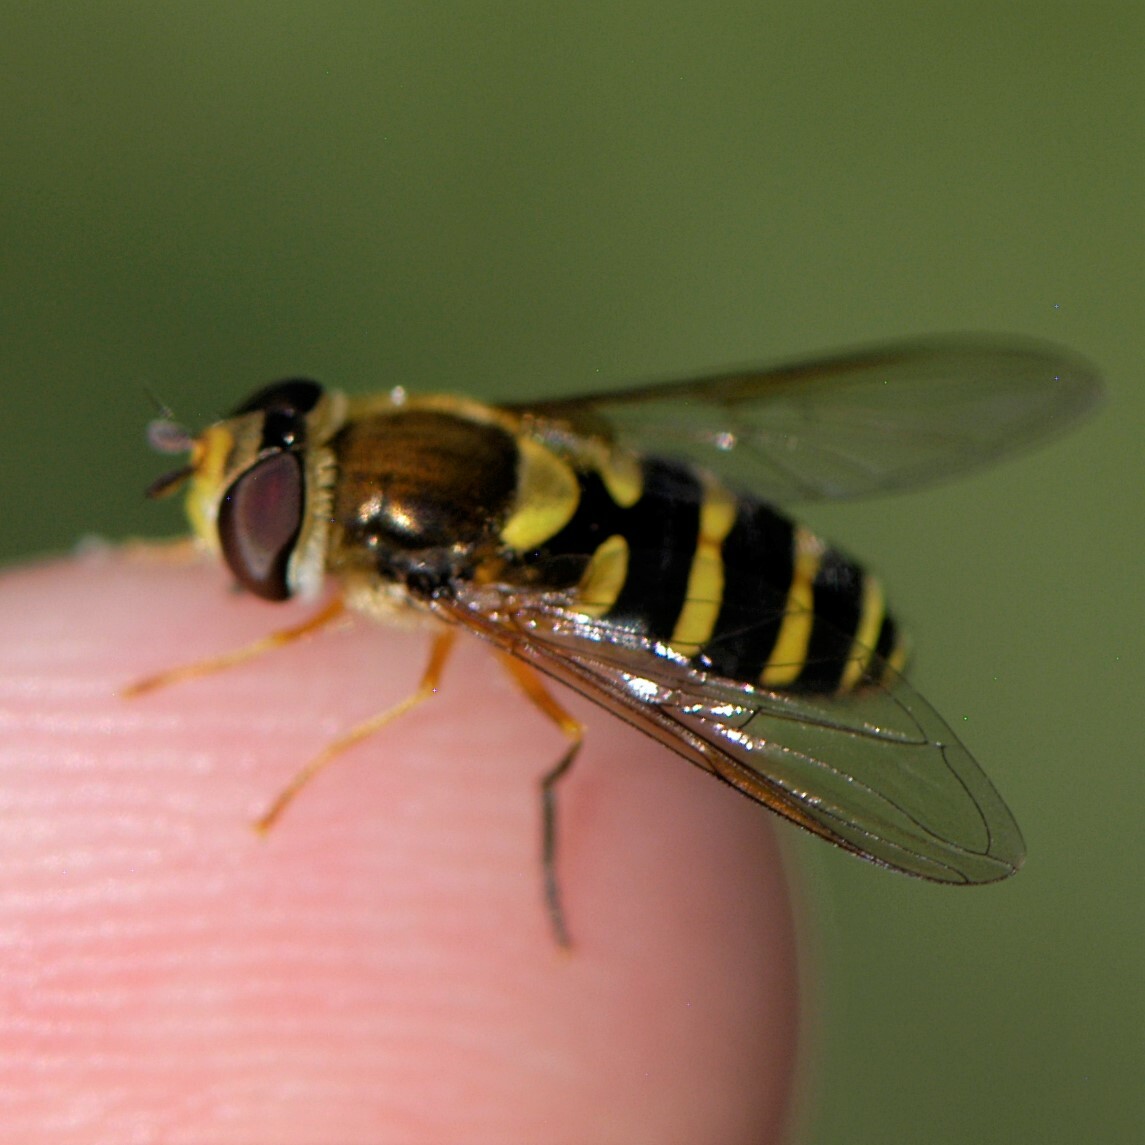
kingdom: Animalia
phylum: Arthropoda
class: Insecta
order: Diptera
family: Syrphidae
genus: Syrphus
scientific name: Syrphus opinator
